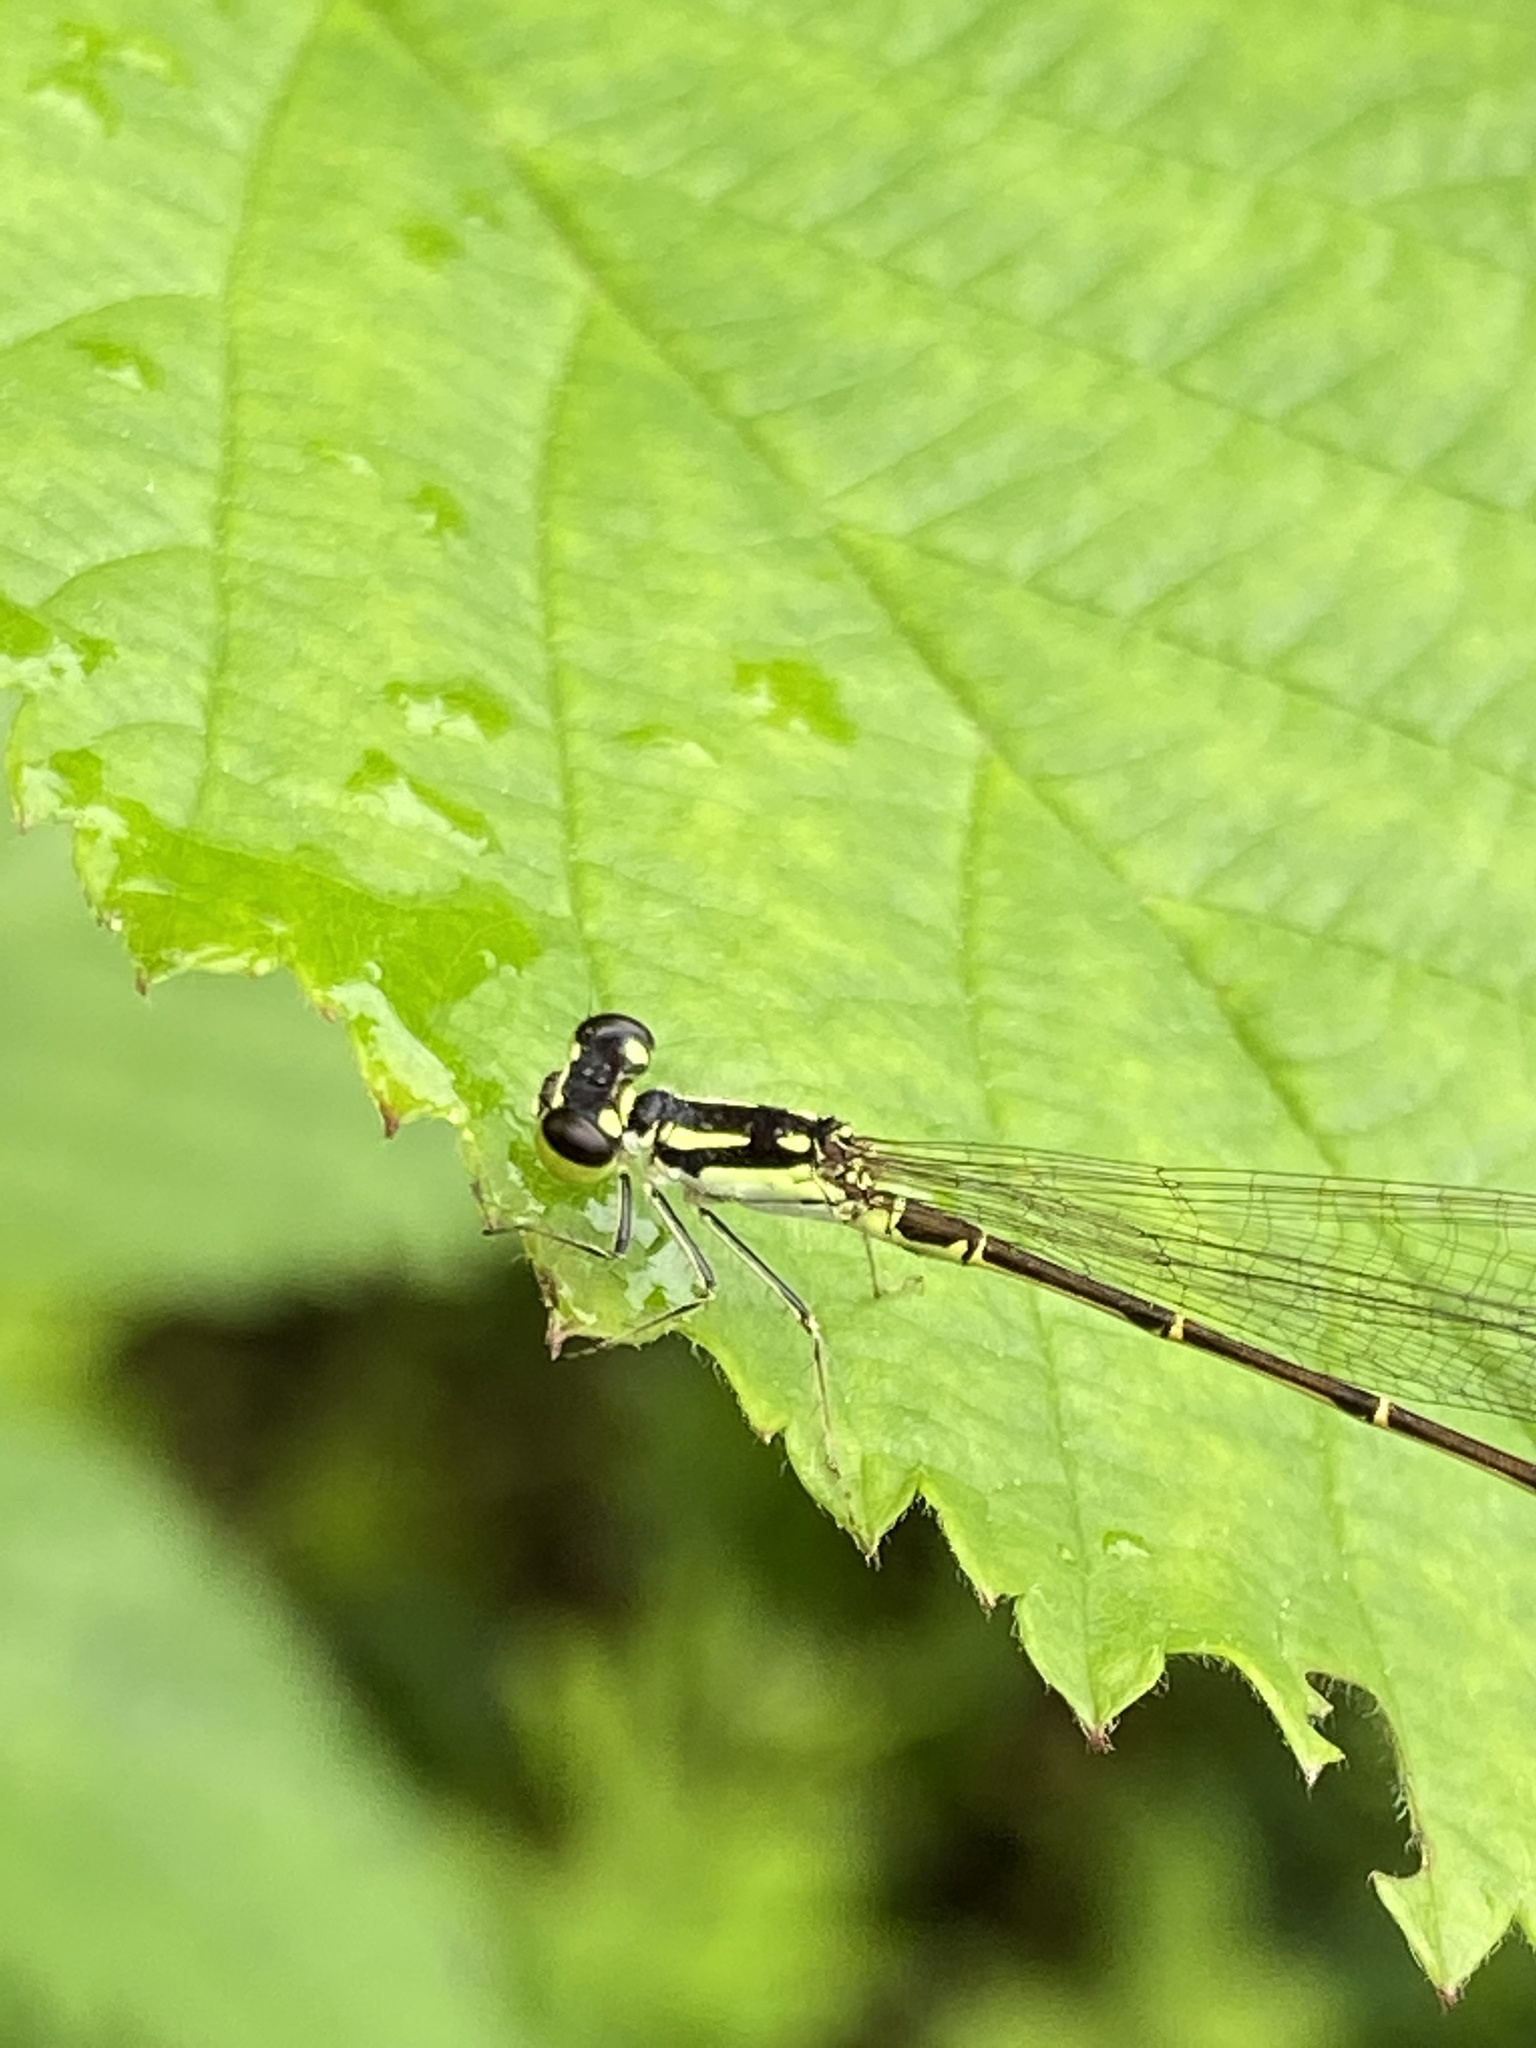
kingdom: Animalia
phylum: Arthropoda
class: Insecta
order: Odonata
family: Coenagrionidae
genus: Ischnura
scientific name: Ischnura posita
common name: Fragile forktail
